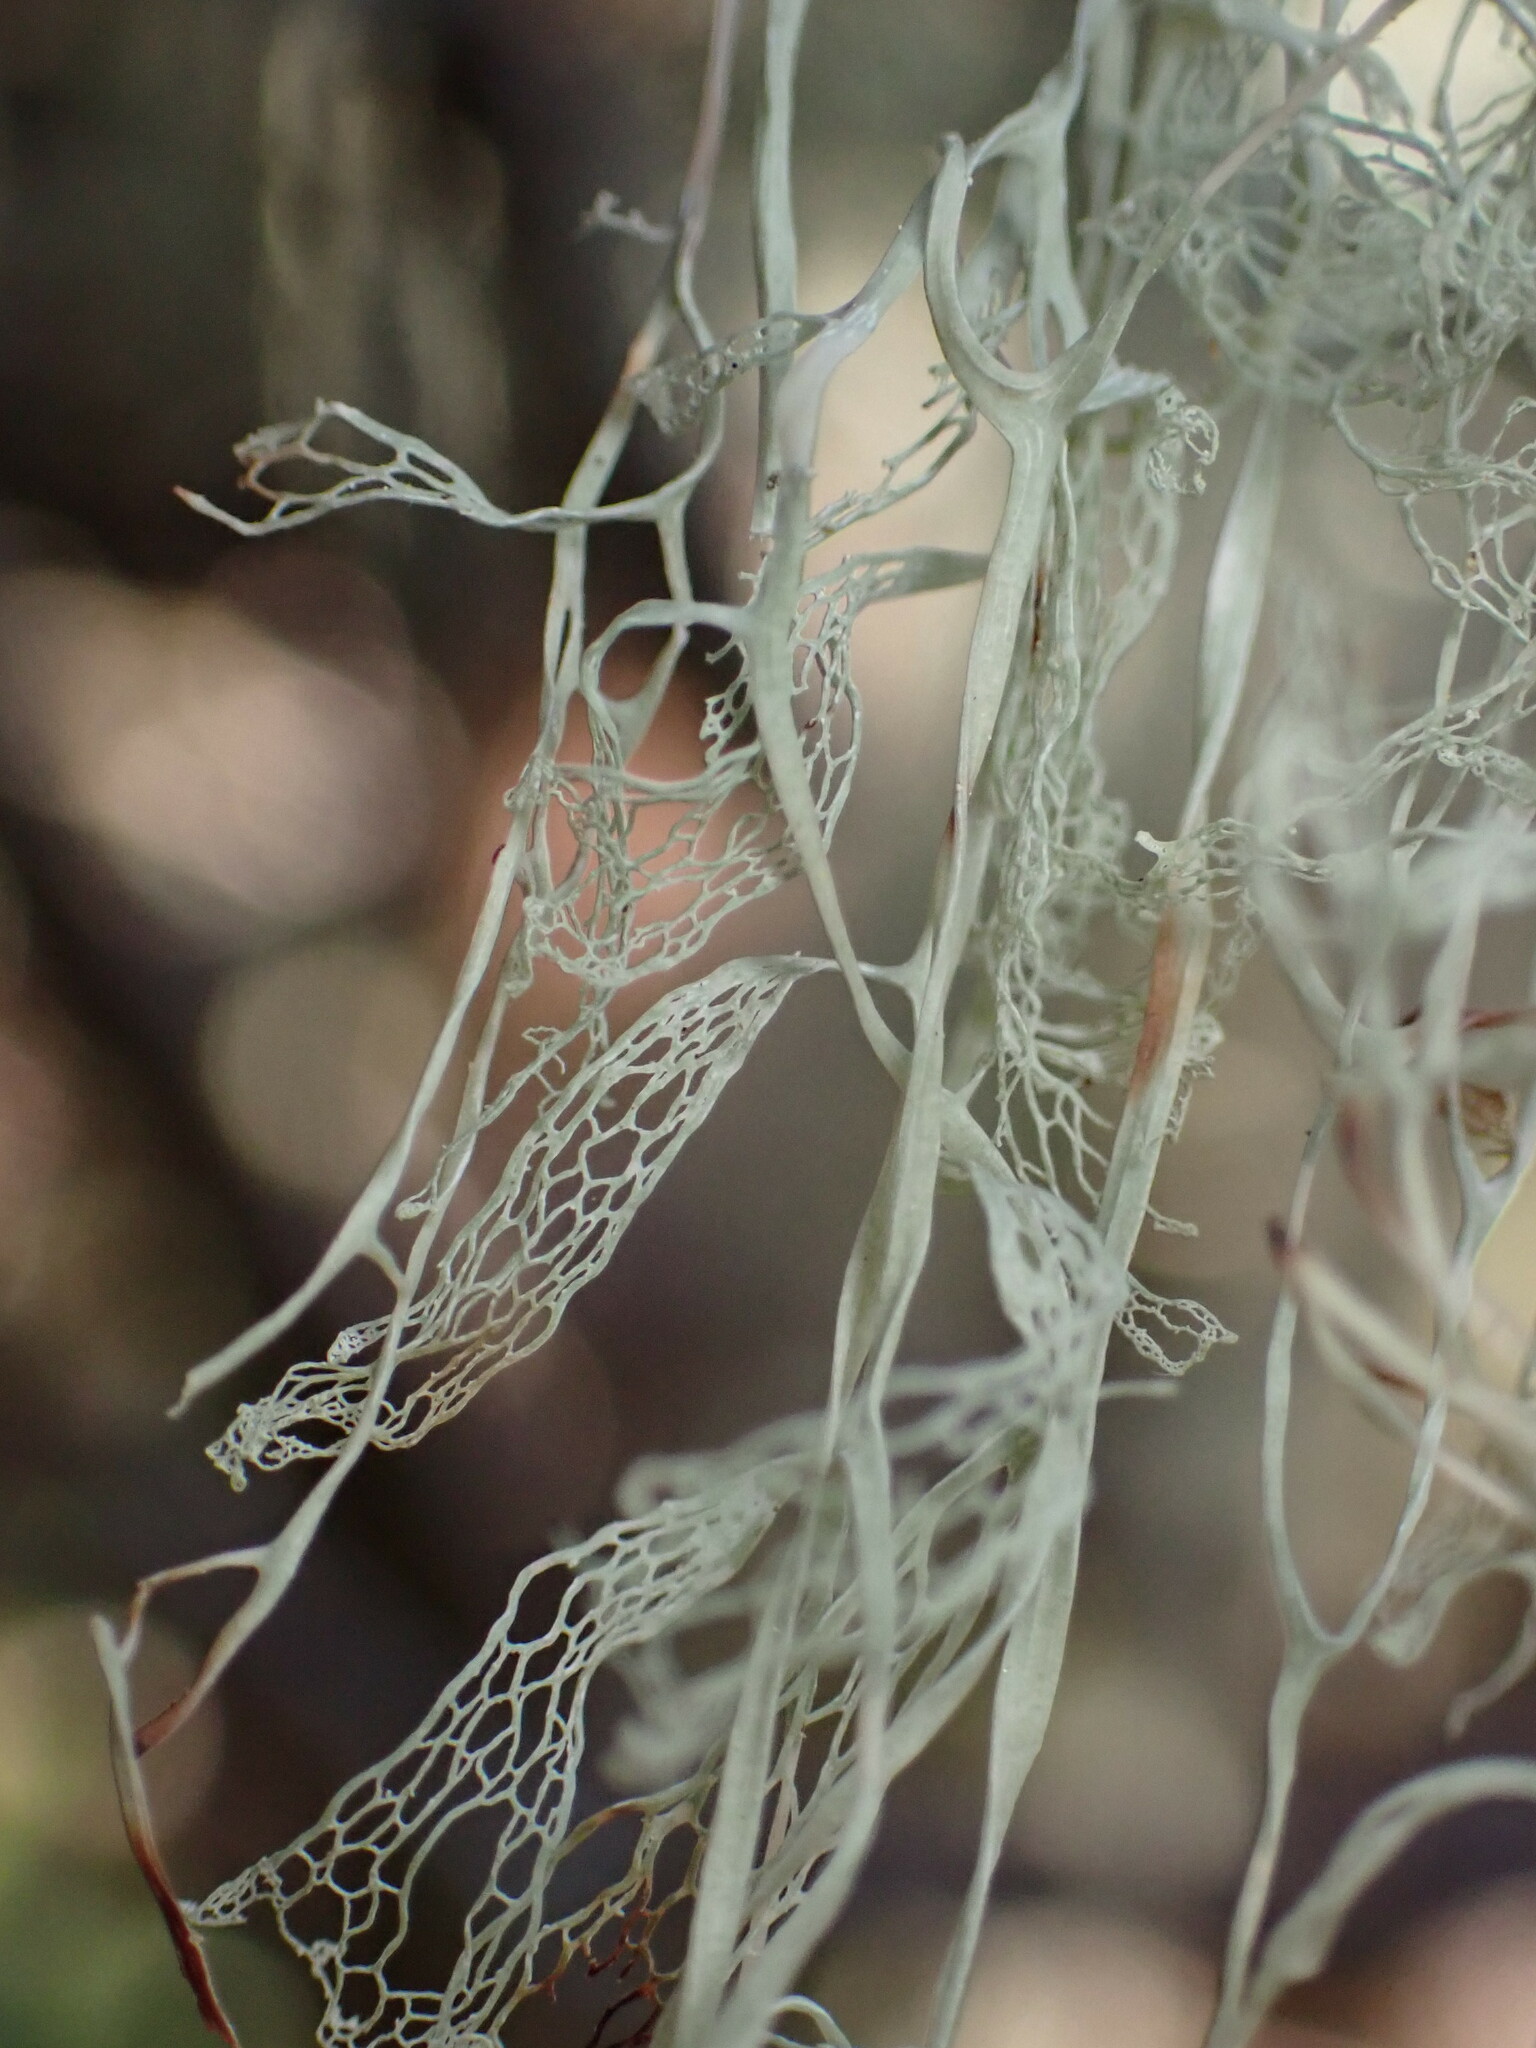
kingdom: Fungi
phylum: Ascomycota
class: Lecanoromycetes
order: Lecanorales
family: Ramalinaceae
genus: Ramalina
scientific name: Ramalina menziesii
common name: Lace lichen
